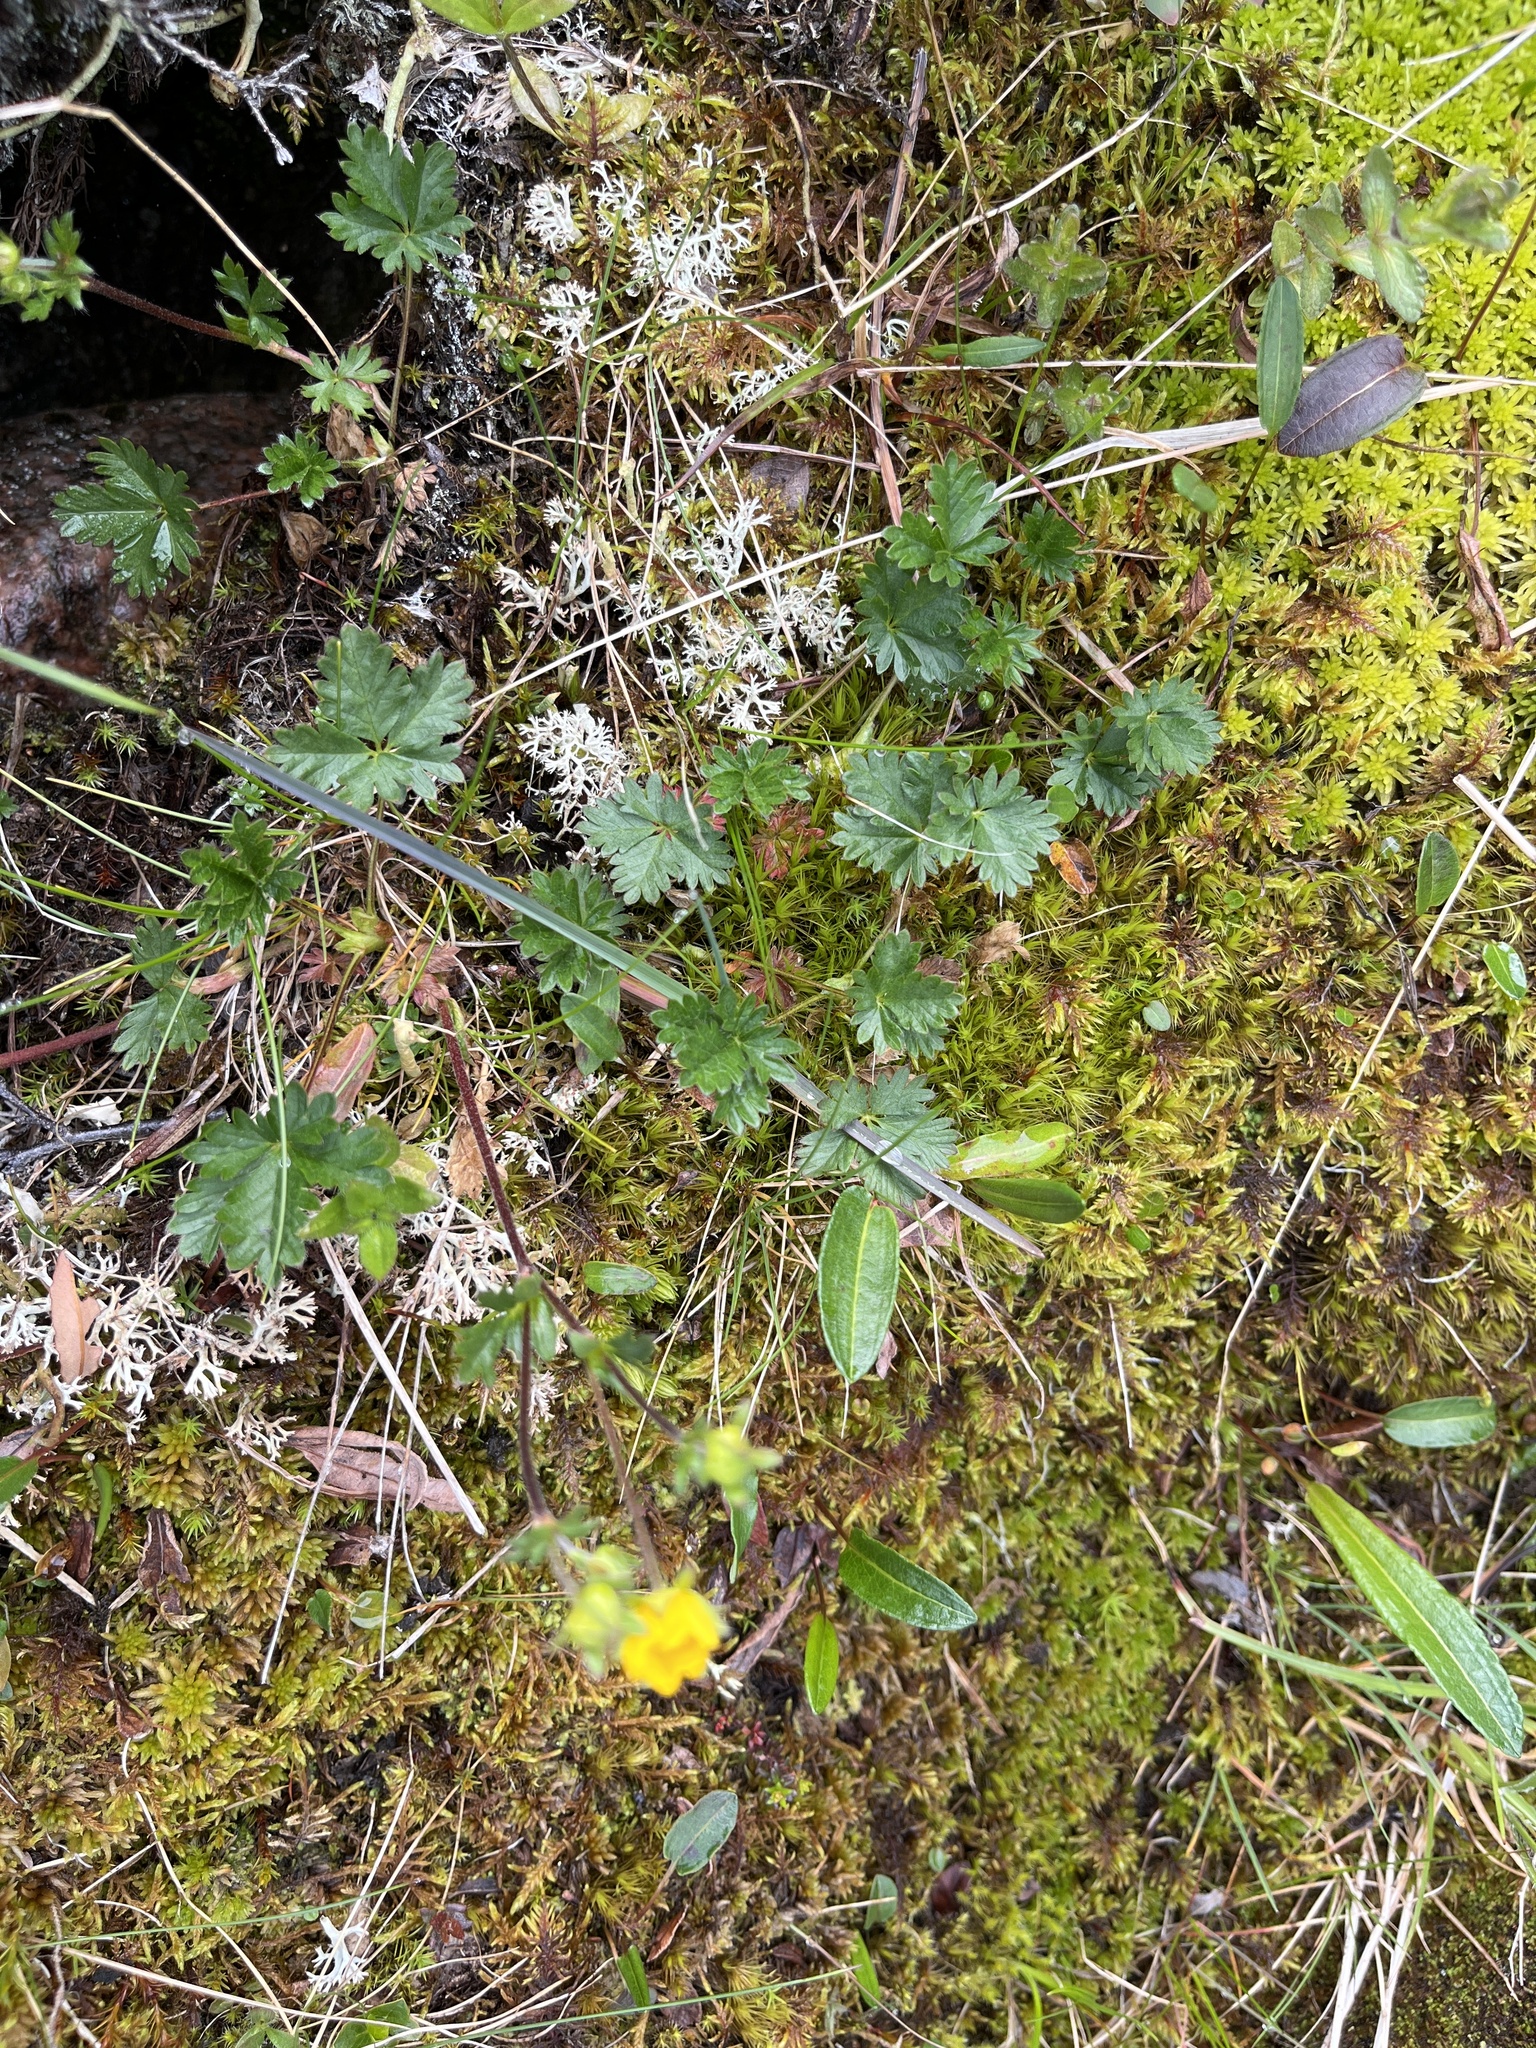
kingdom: Plantae
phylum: Tracheophyta
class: Magnoliopsida
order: Rosales
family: Rosaceae
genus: Potentilla
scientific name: Potentilla crantzii
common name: Alpine cinquefoil
